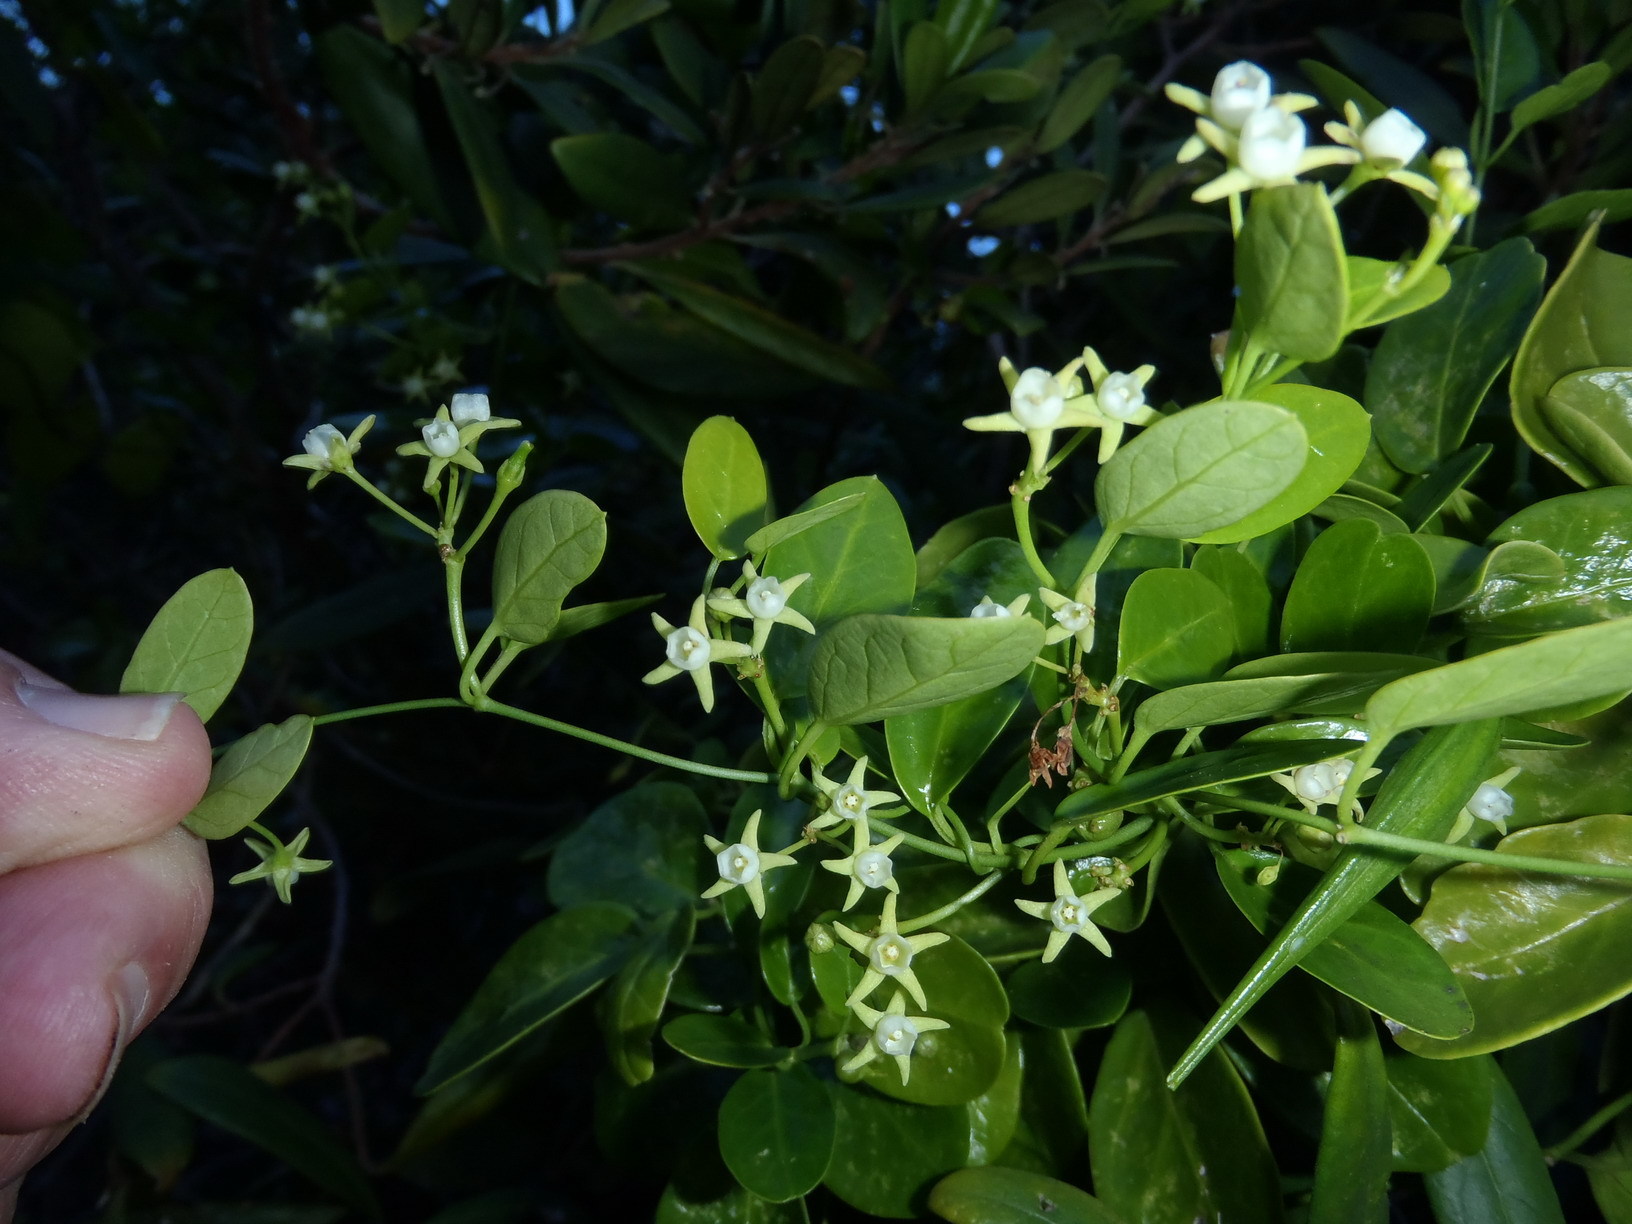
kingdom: Plantae
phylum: Tracheophyta
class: Magnoliopsida
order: Gentianales
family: Apocynaceae
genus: Cynanchum
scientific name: Cynanchum ellipticum
